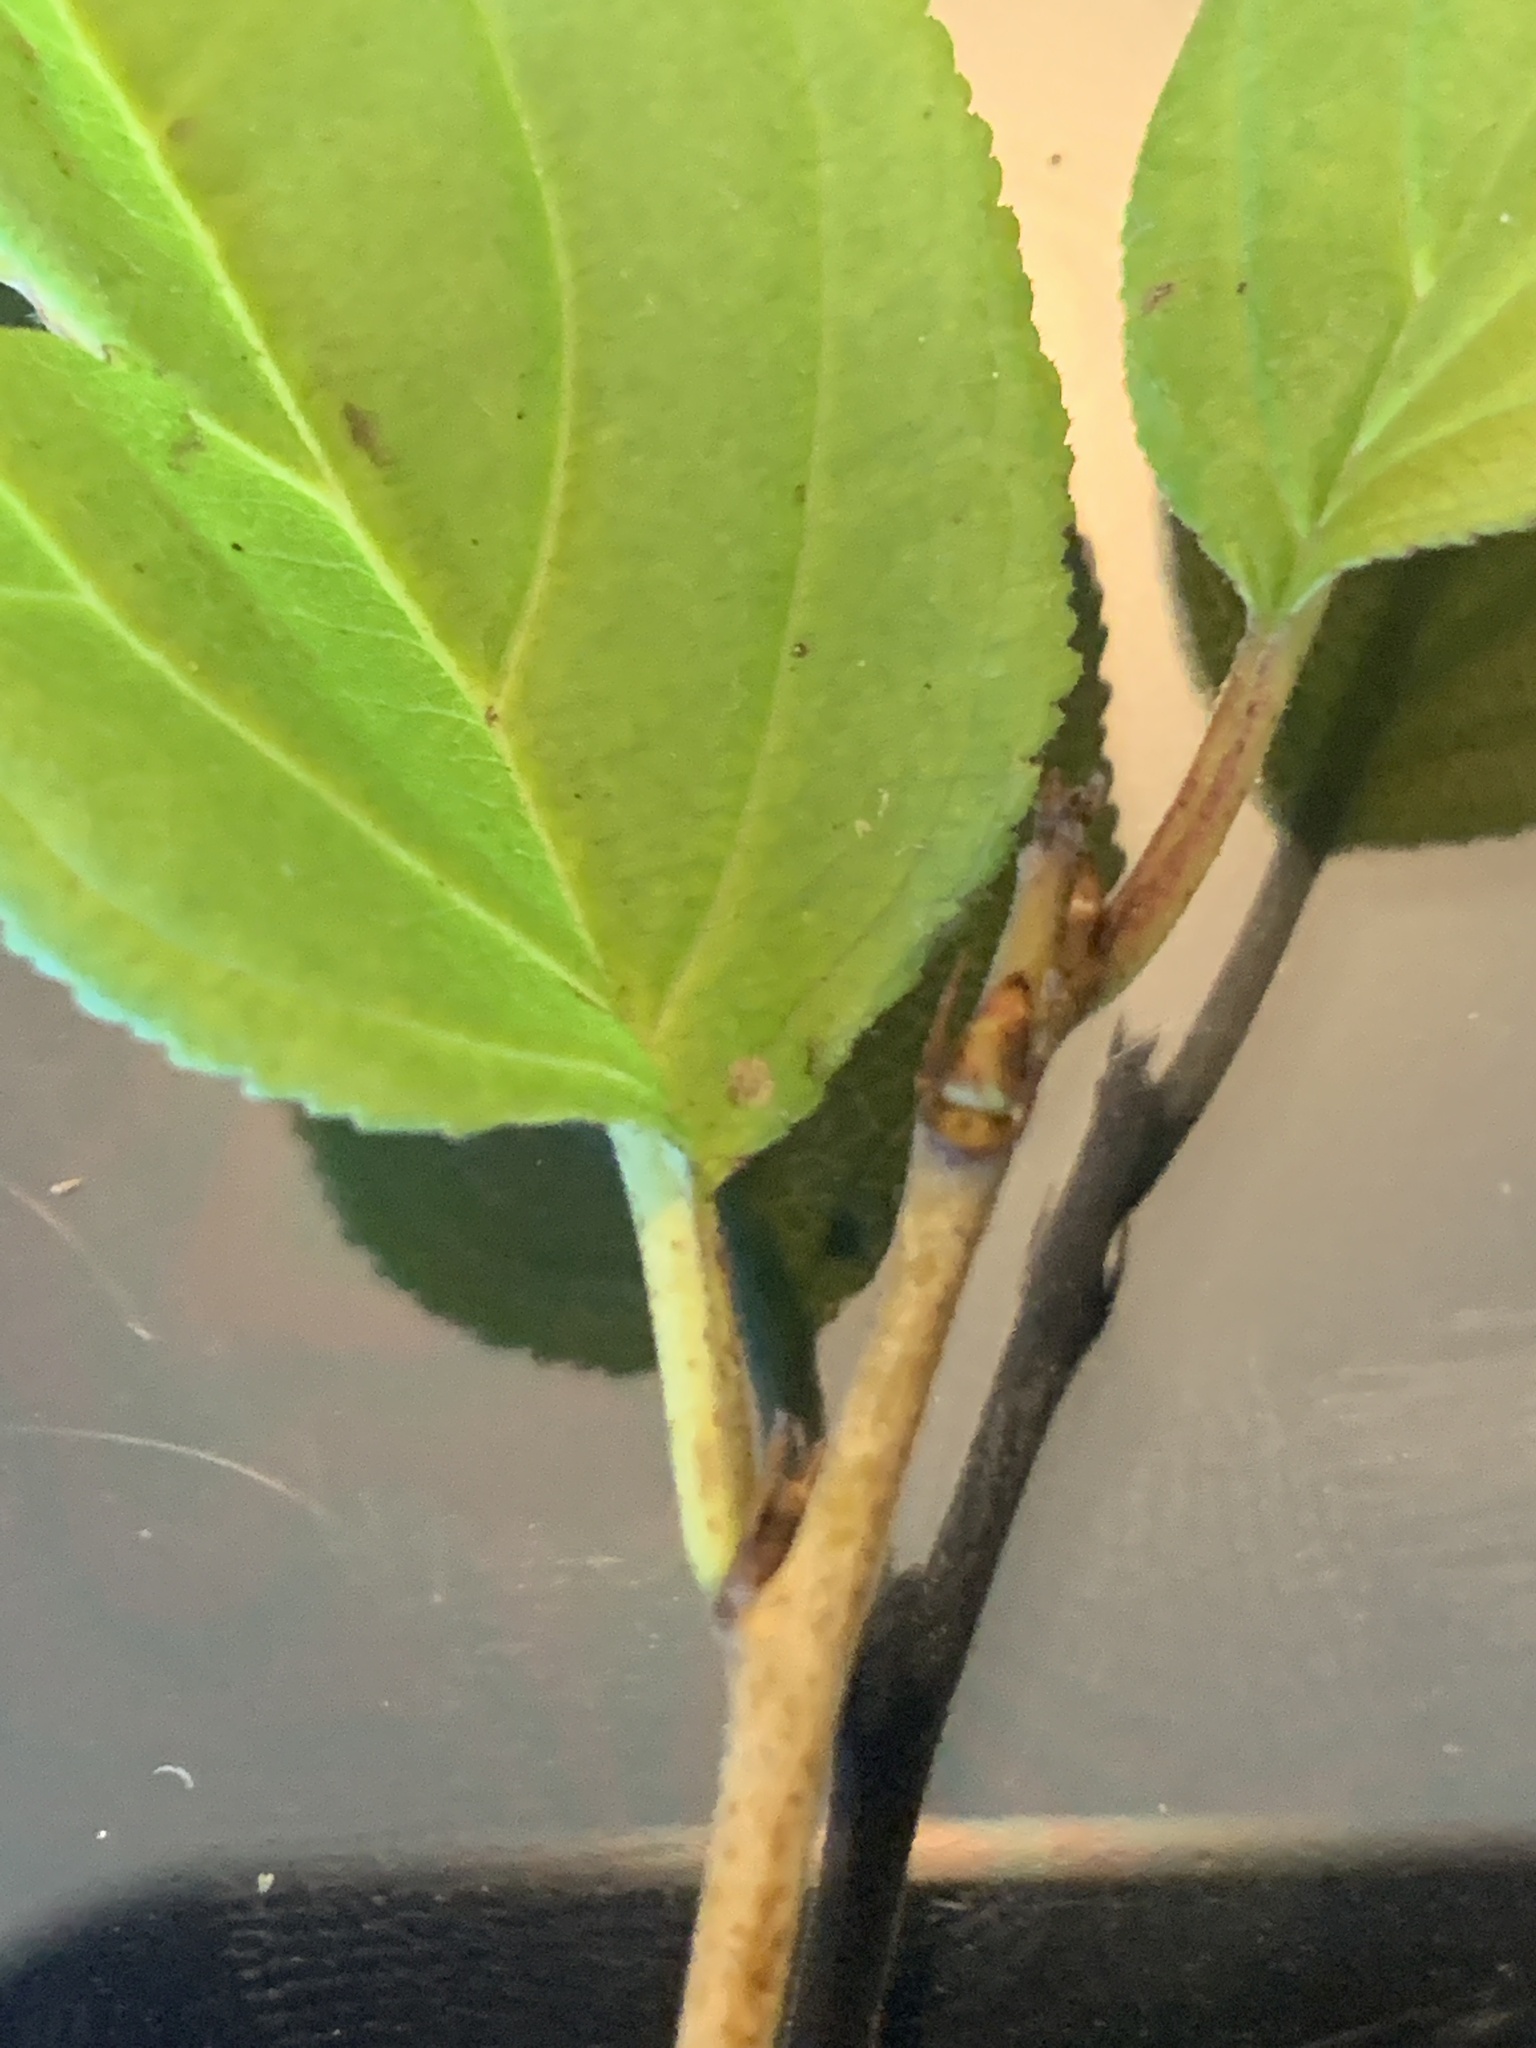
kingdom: Plantae
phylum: Tracheophyta
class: Magnoliopsida
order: Rosales
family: Rhamnaceae
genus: Rhamnus
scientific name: Rhamnus cathartica
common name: Common buckthorn
